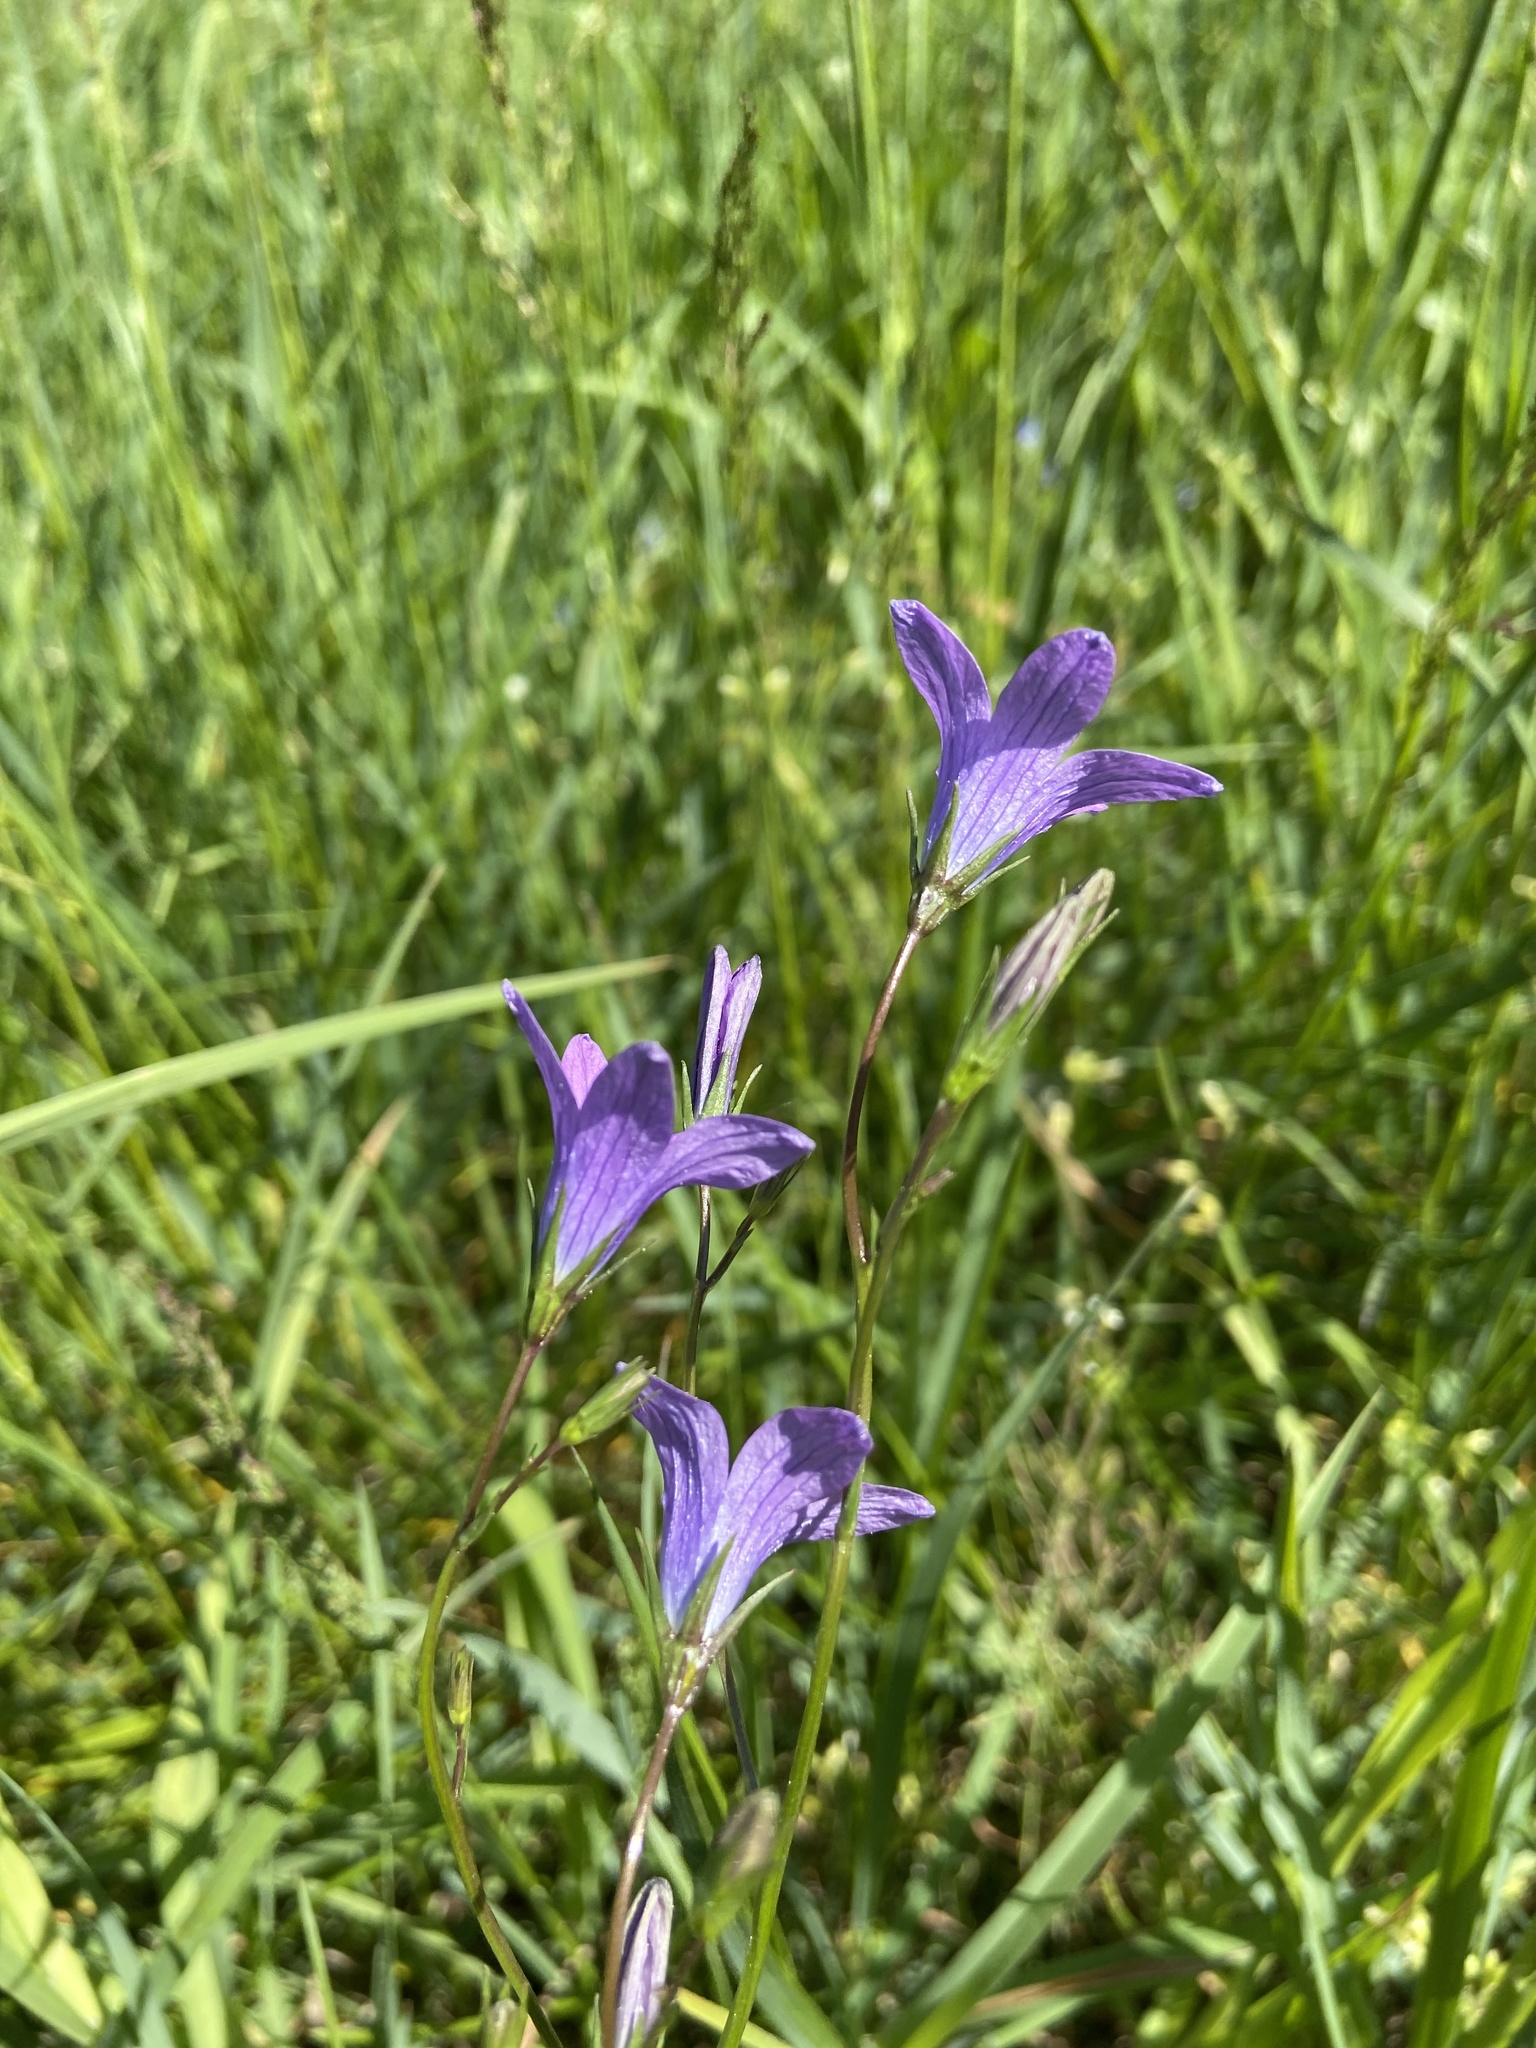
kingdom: Plantae
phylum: Tracheophyta
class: Magnoliopsida
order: Asterales
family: Campanulaceae
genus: Campanula
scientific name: Campanula patula
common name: Spreading bellflower
